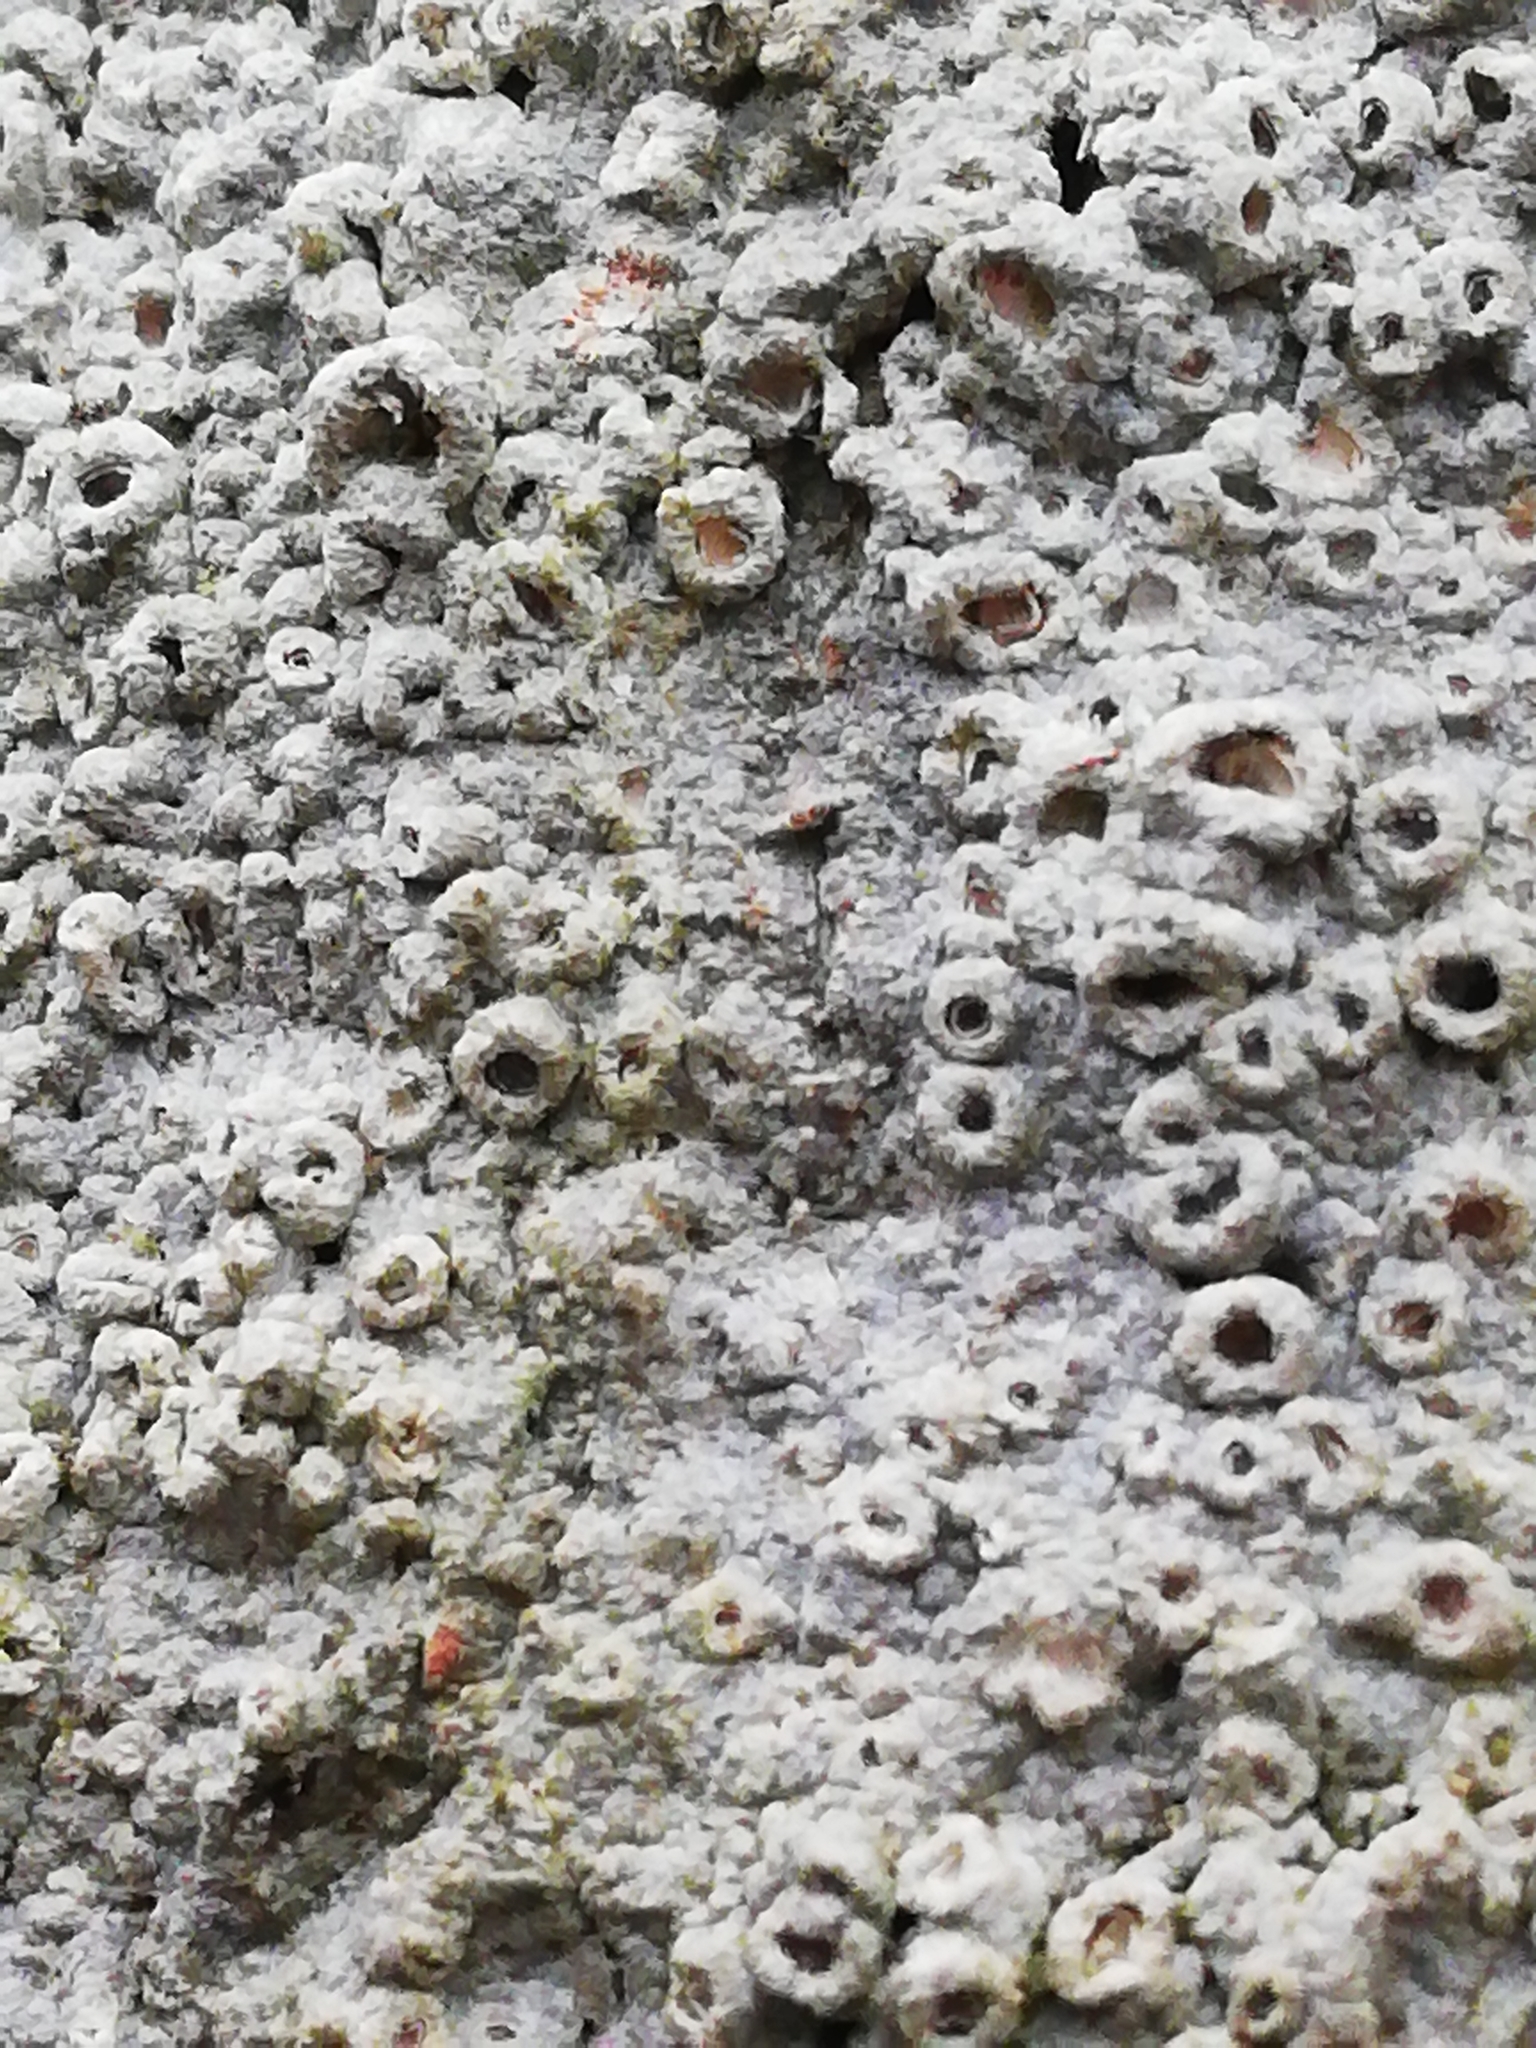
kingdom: Fungi
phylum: Ascomycota
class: Lecanoromycetes
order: Ostropales
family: Graphidaceae
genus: Thelotrema
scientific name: Thelotrema lepadinum
